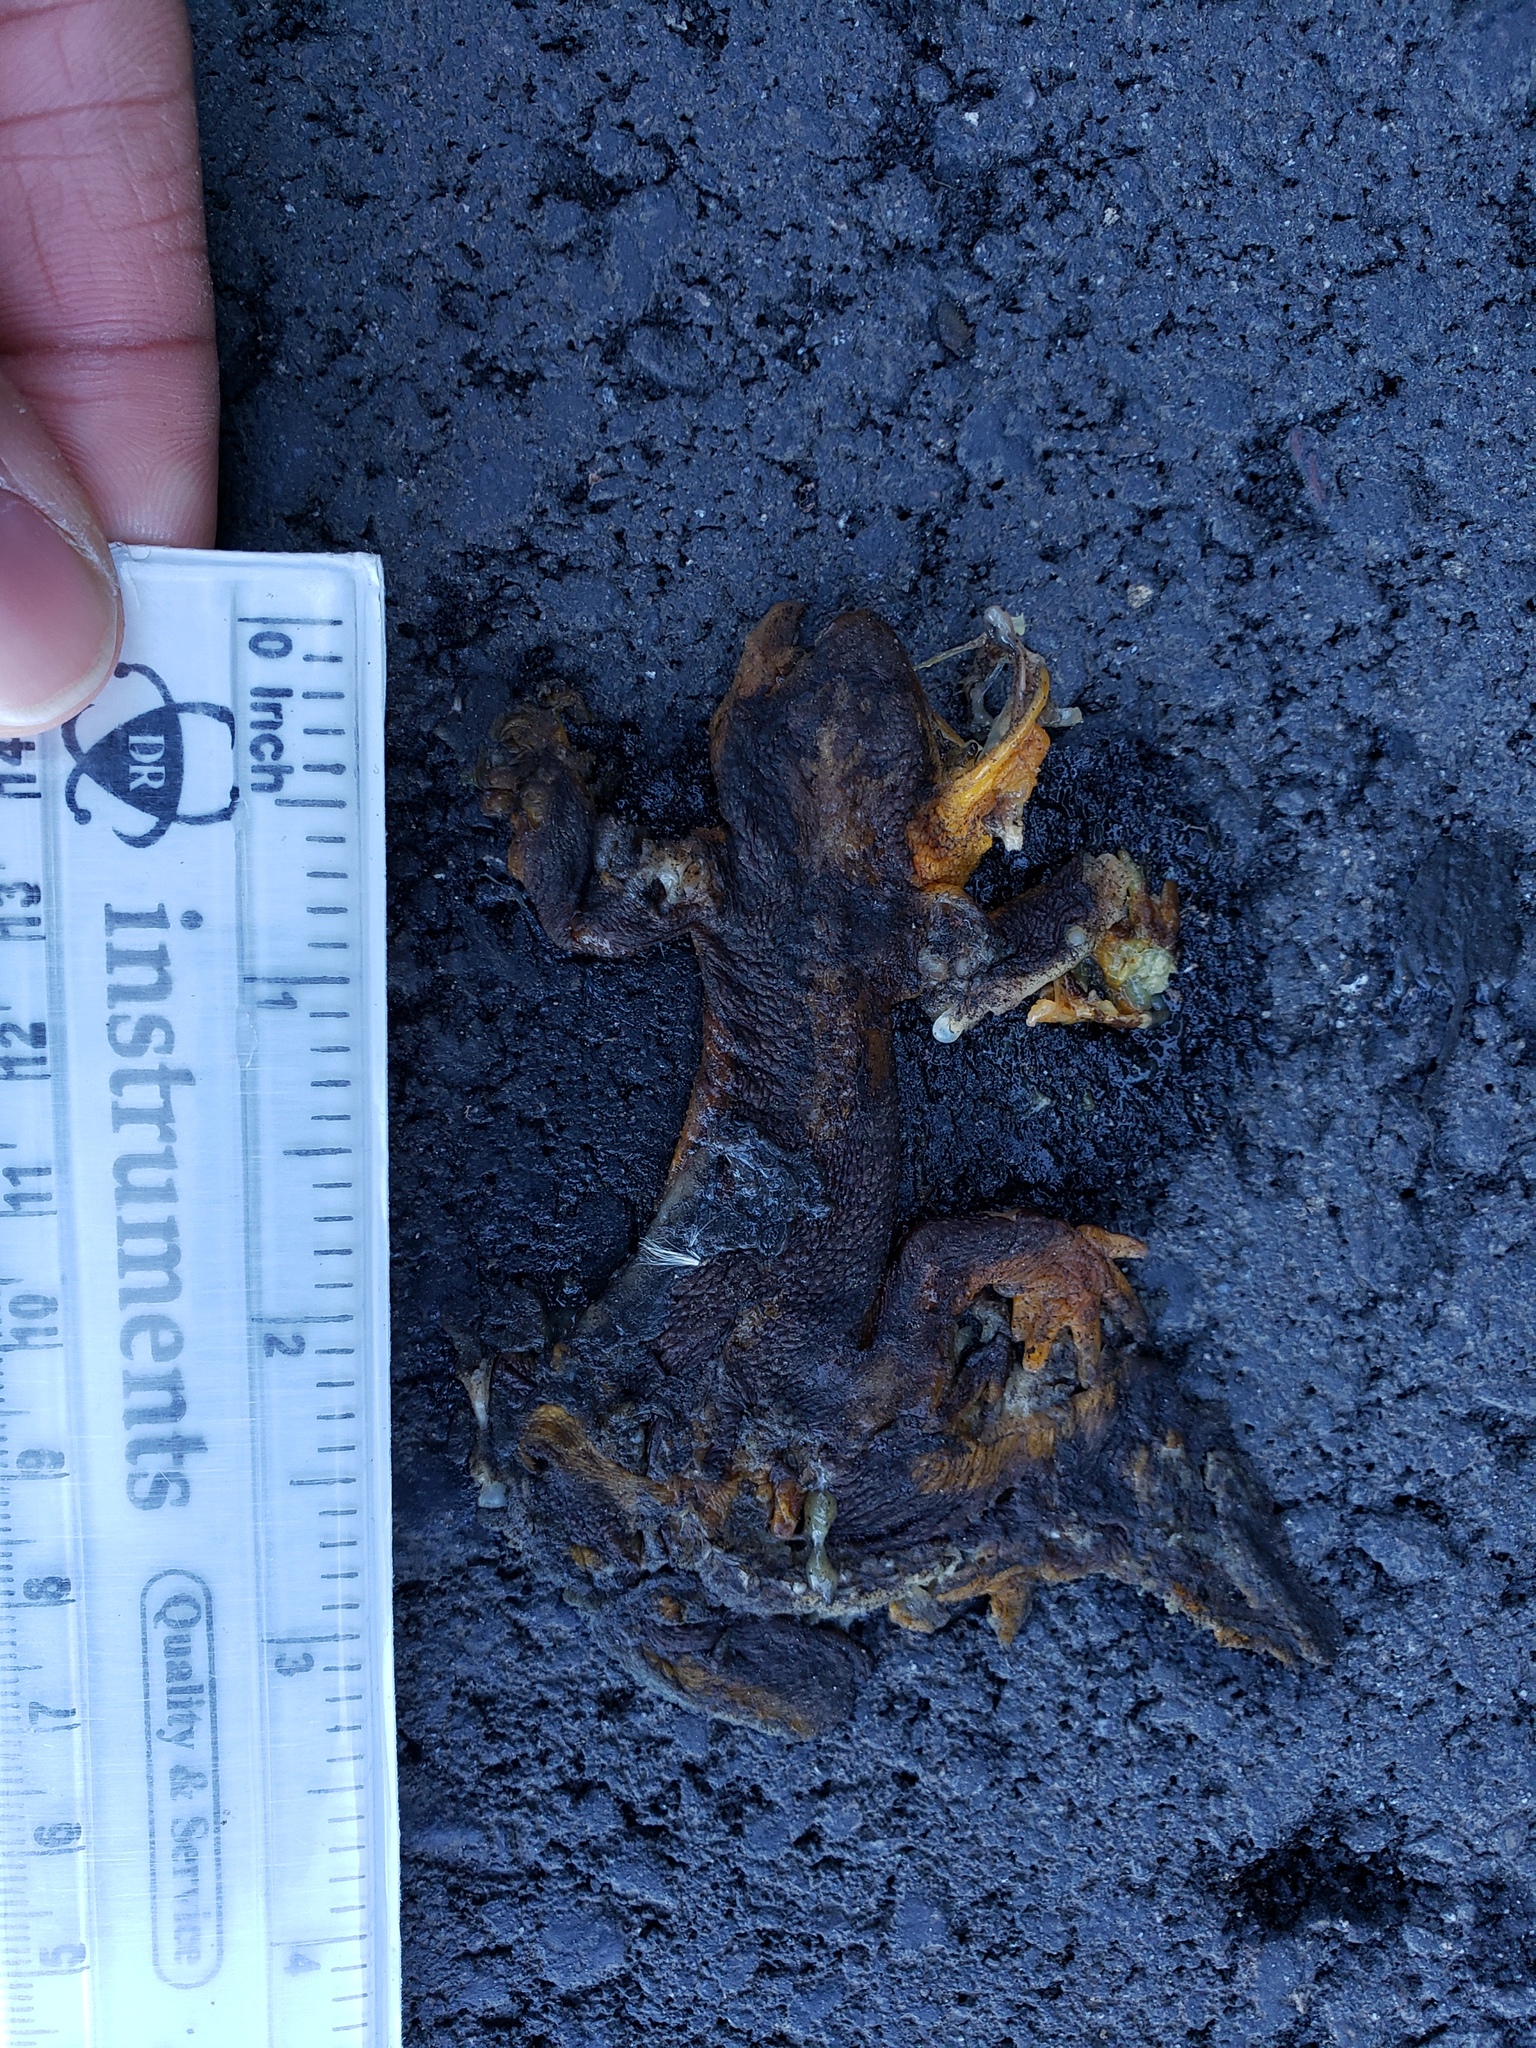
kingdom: Animalia
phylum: Chordata
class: Amphibia
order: Caudata
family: Salamandridae
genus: Taricha
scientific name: Taricha
